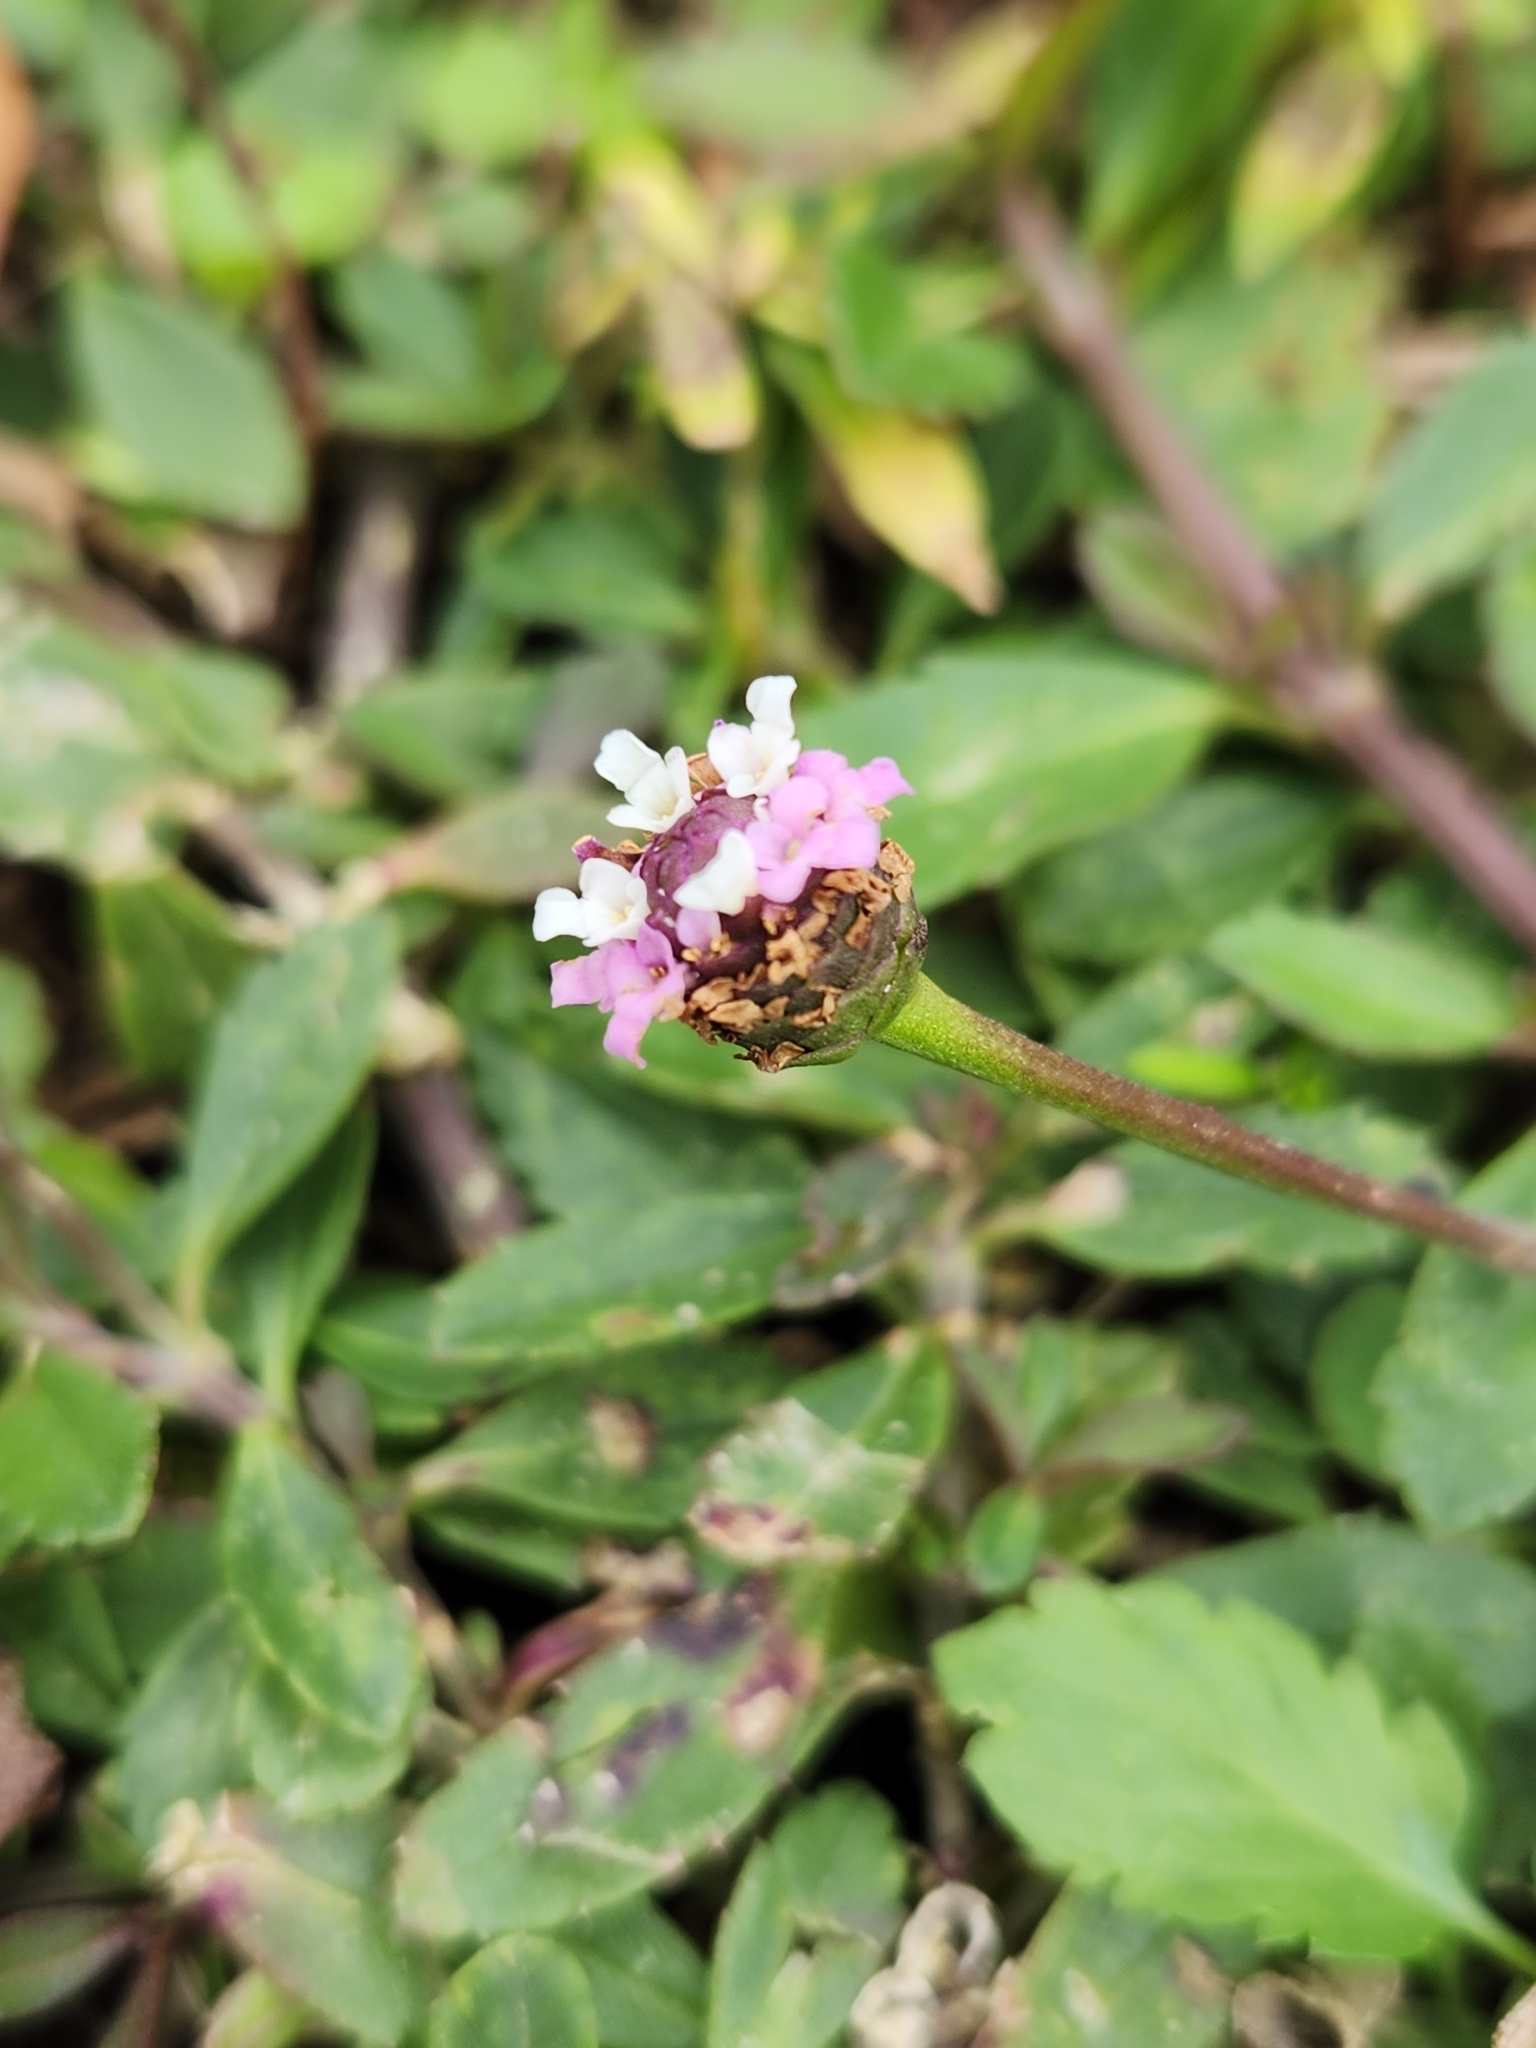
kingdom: Plantae
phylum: Tracheophyta
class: Magnoliopsida
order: Lamiales
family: Verbenaceae
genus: Phyla
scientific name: Phyla nodiflora
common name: Frogfruit
